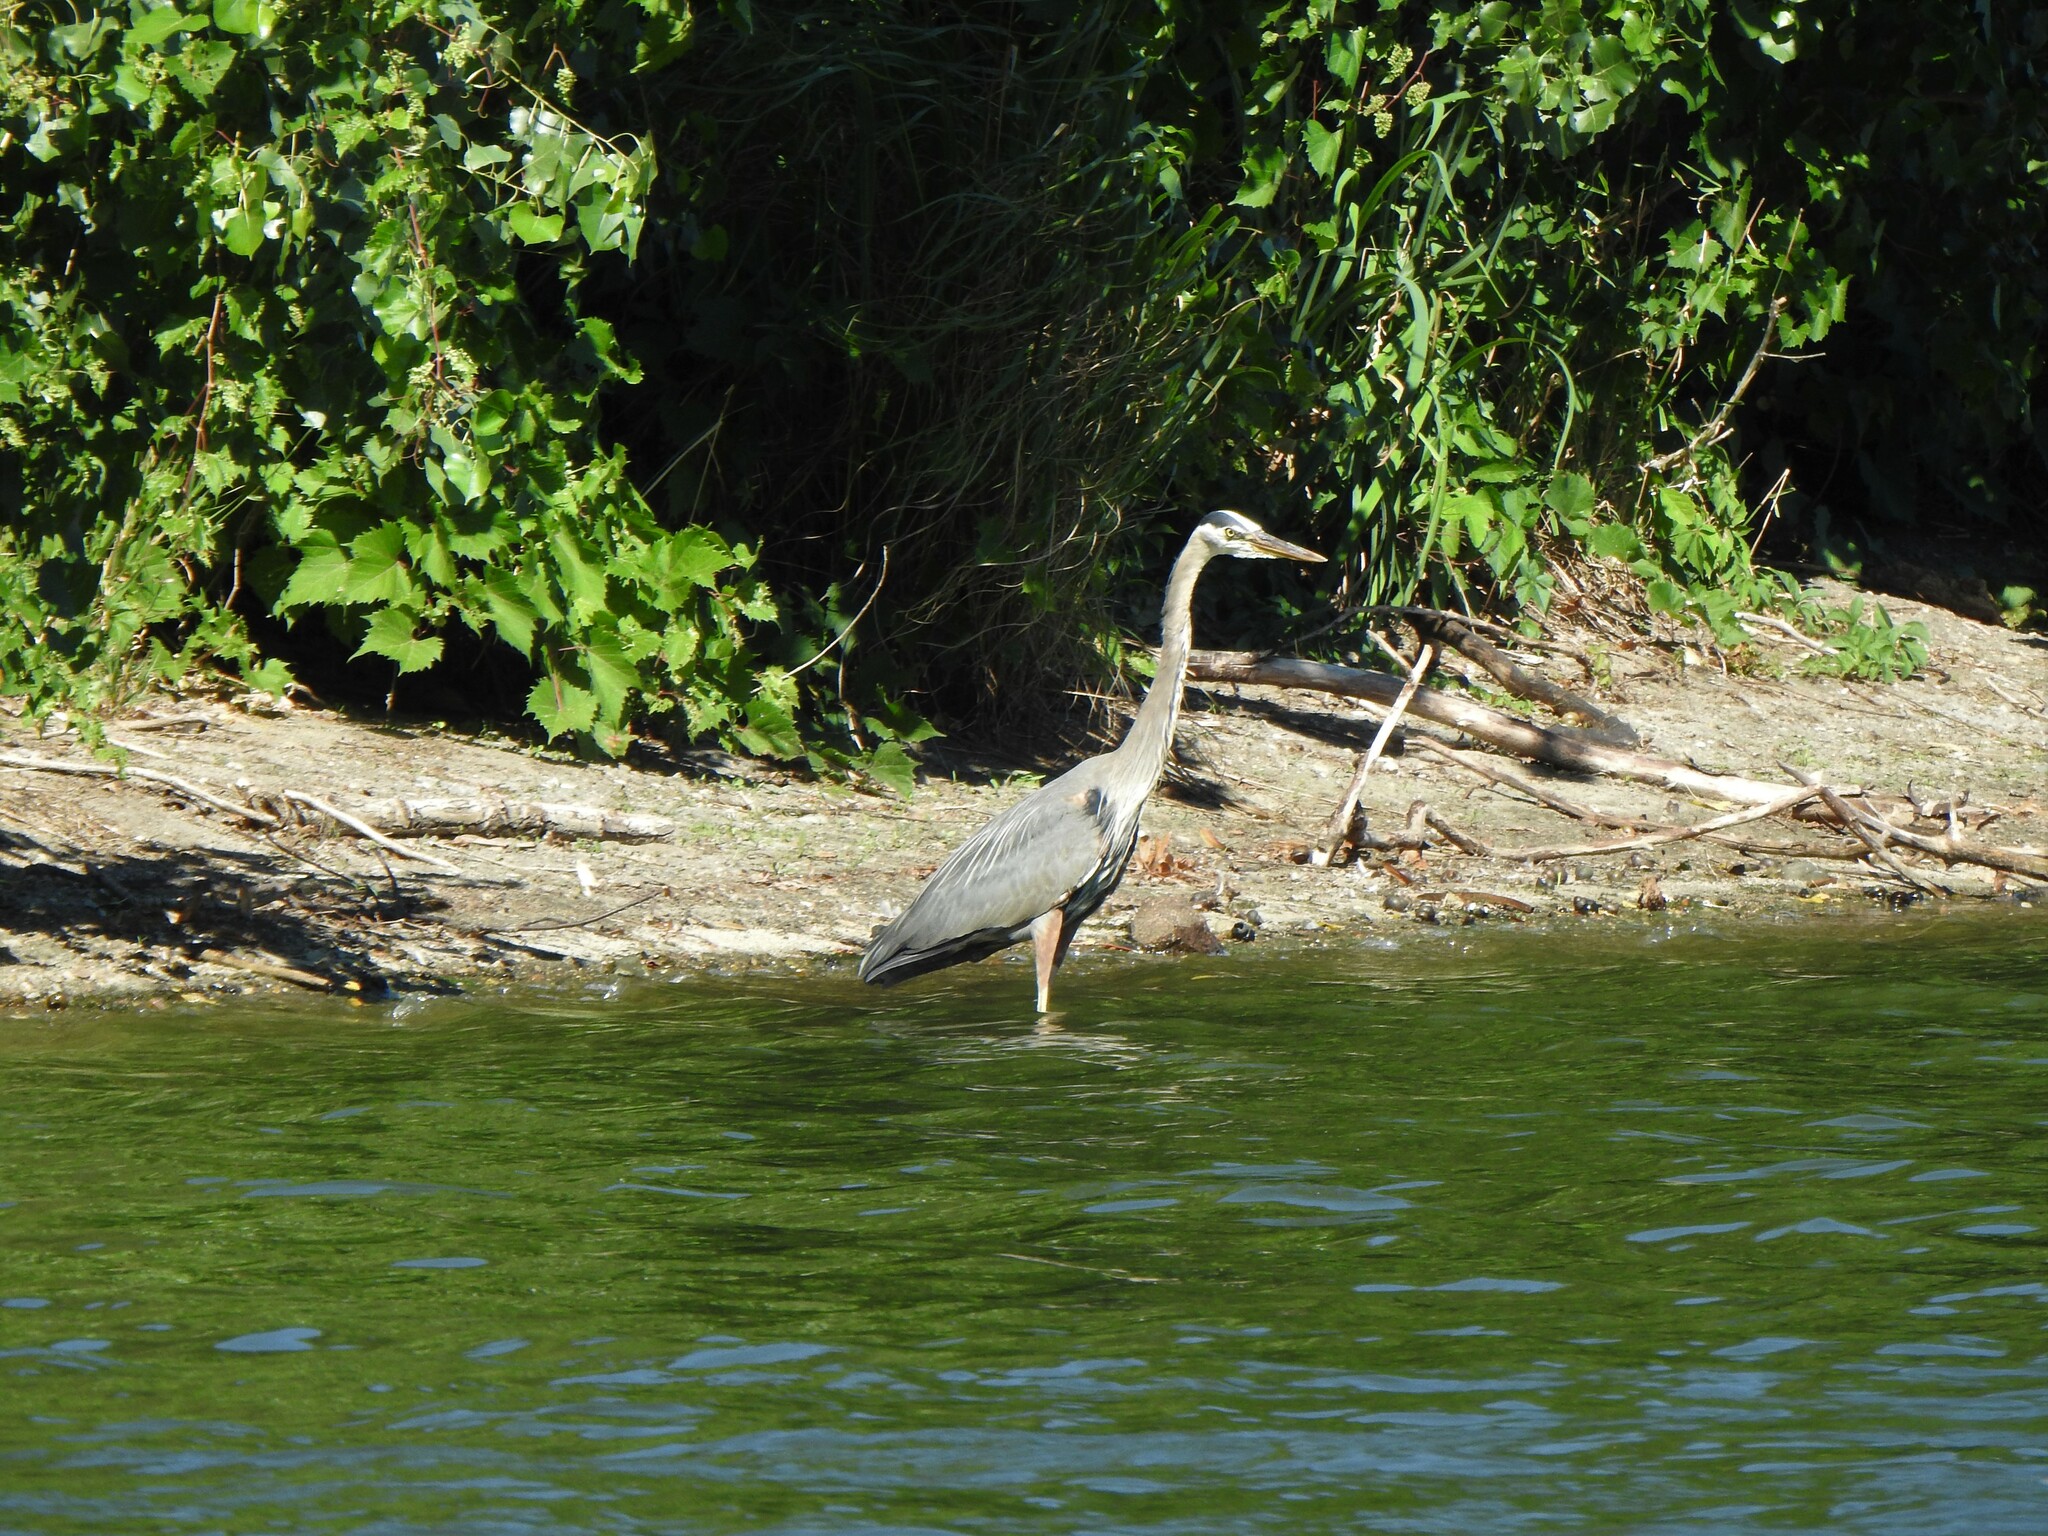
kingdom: Animalia
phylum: Chordata
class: Aves
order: Pelecaniformes
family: Ardeidae
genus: Ardea
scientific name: Ardea herodias
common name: Great blue heron
